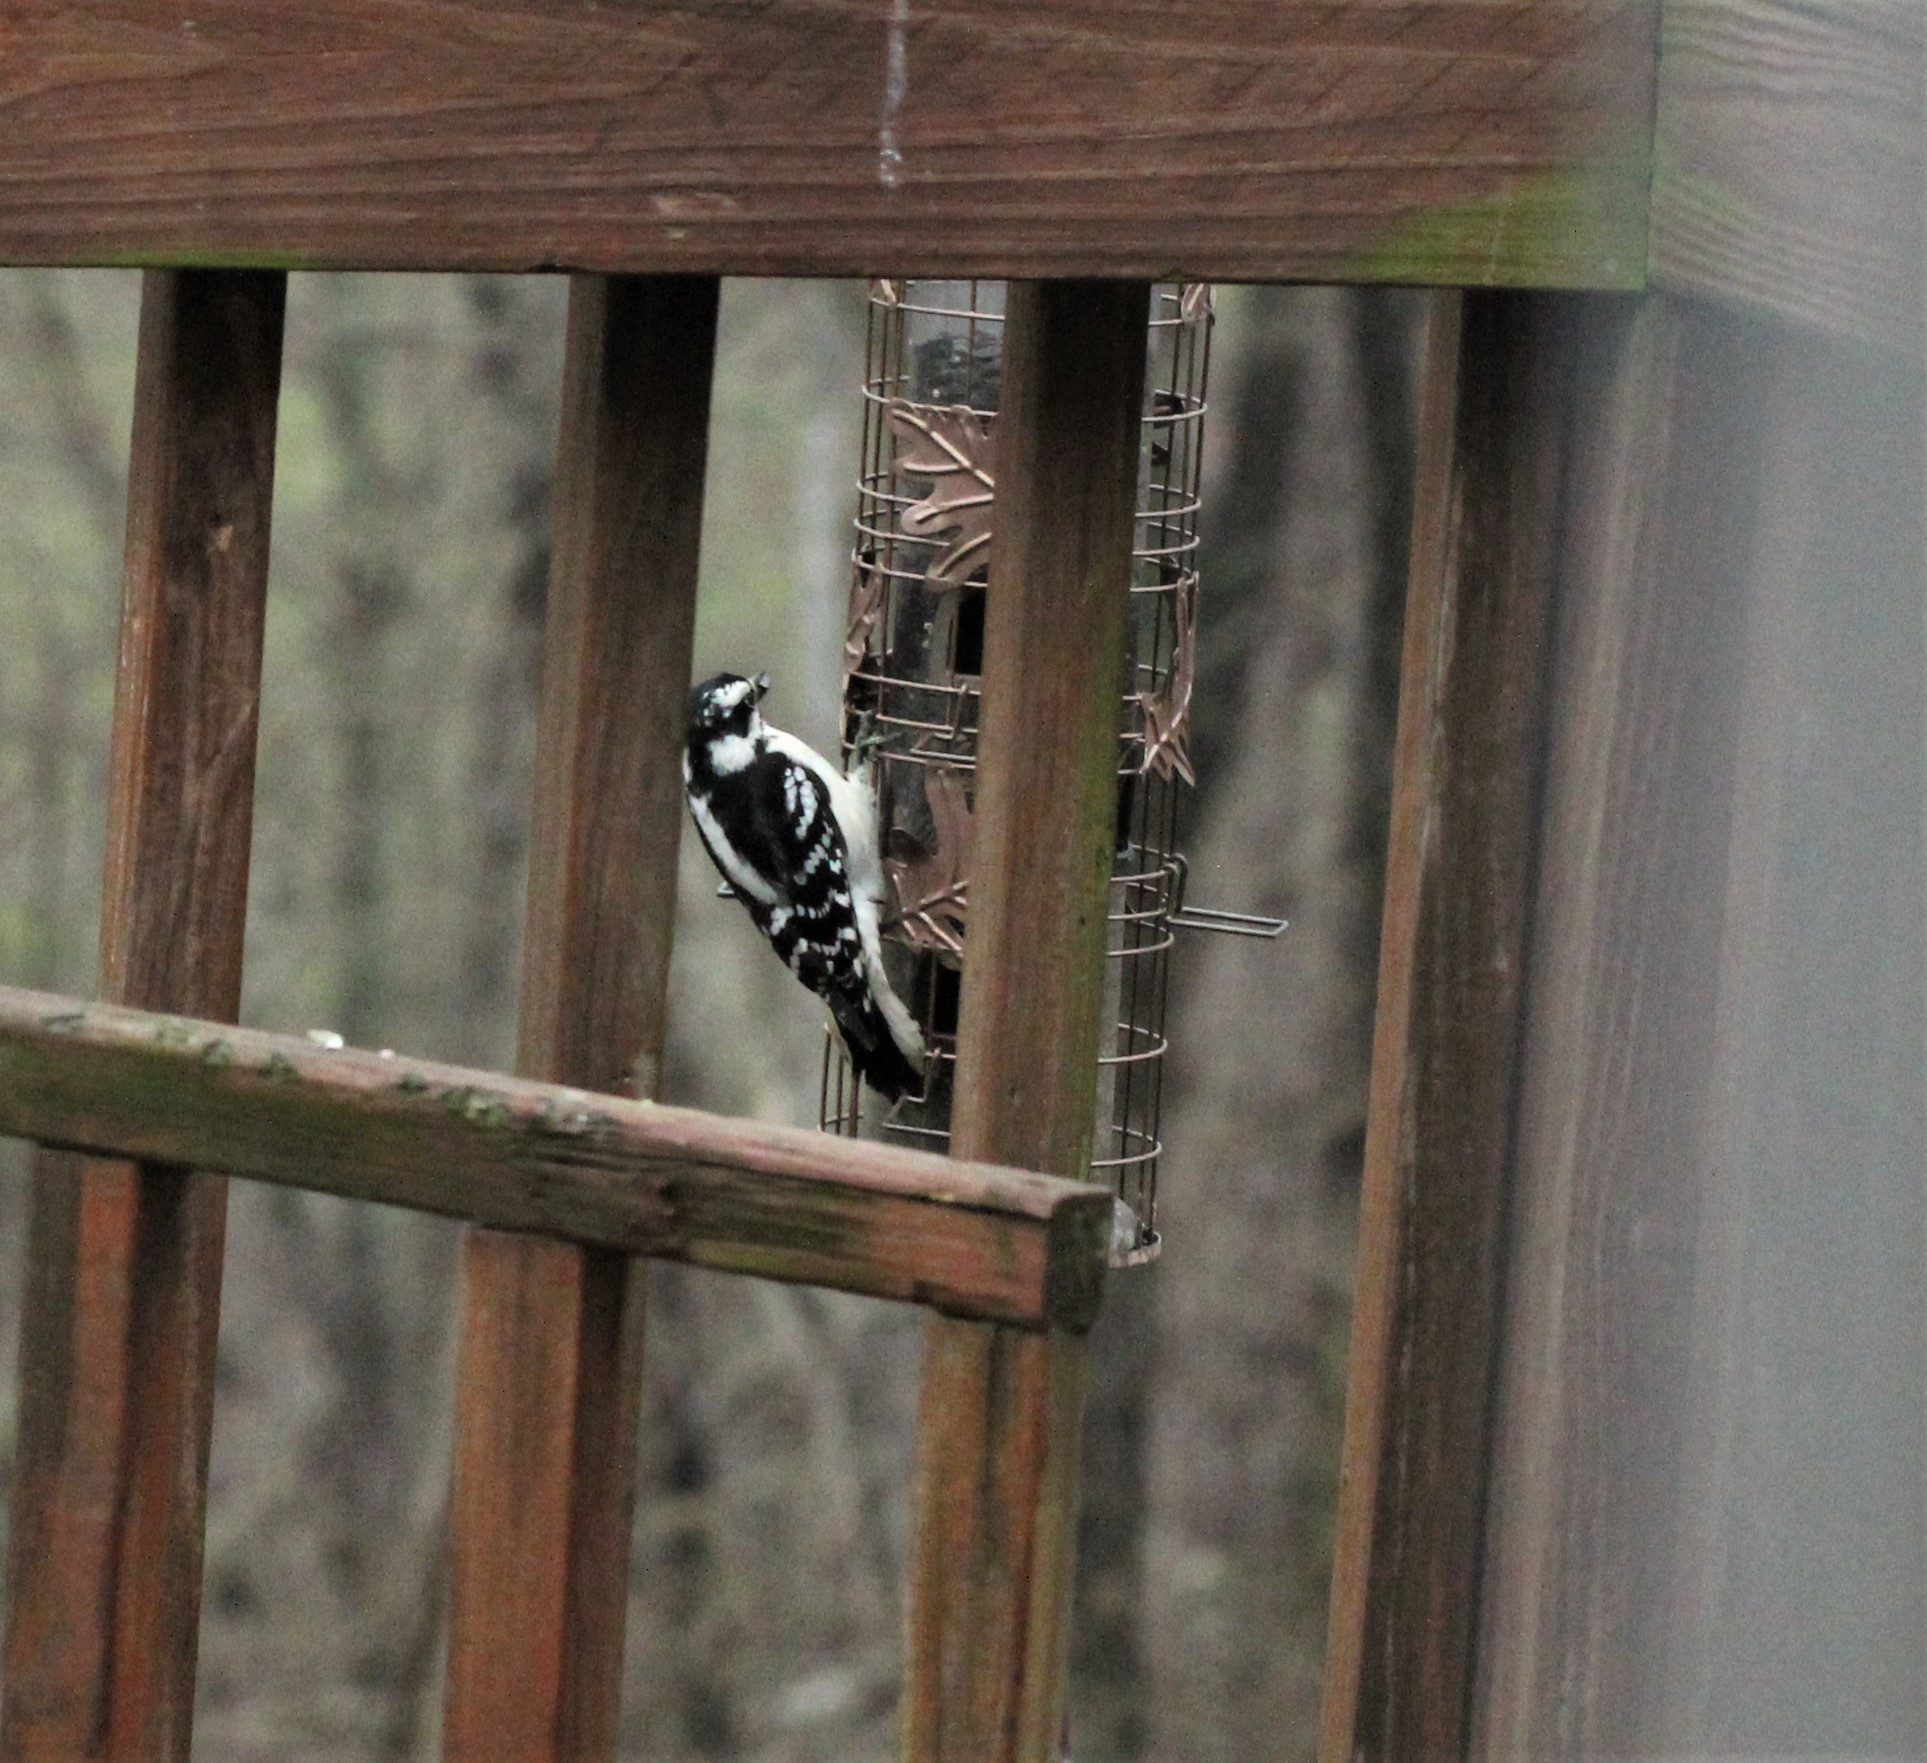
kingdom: Animalia
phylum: Chordata
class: Aves
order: Piciformes
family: Picidae
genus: Dryobates
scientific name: Dryobates pubescens
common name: Downy woodpecker
